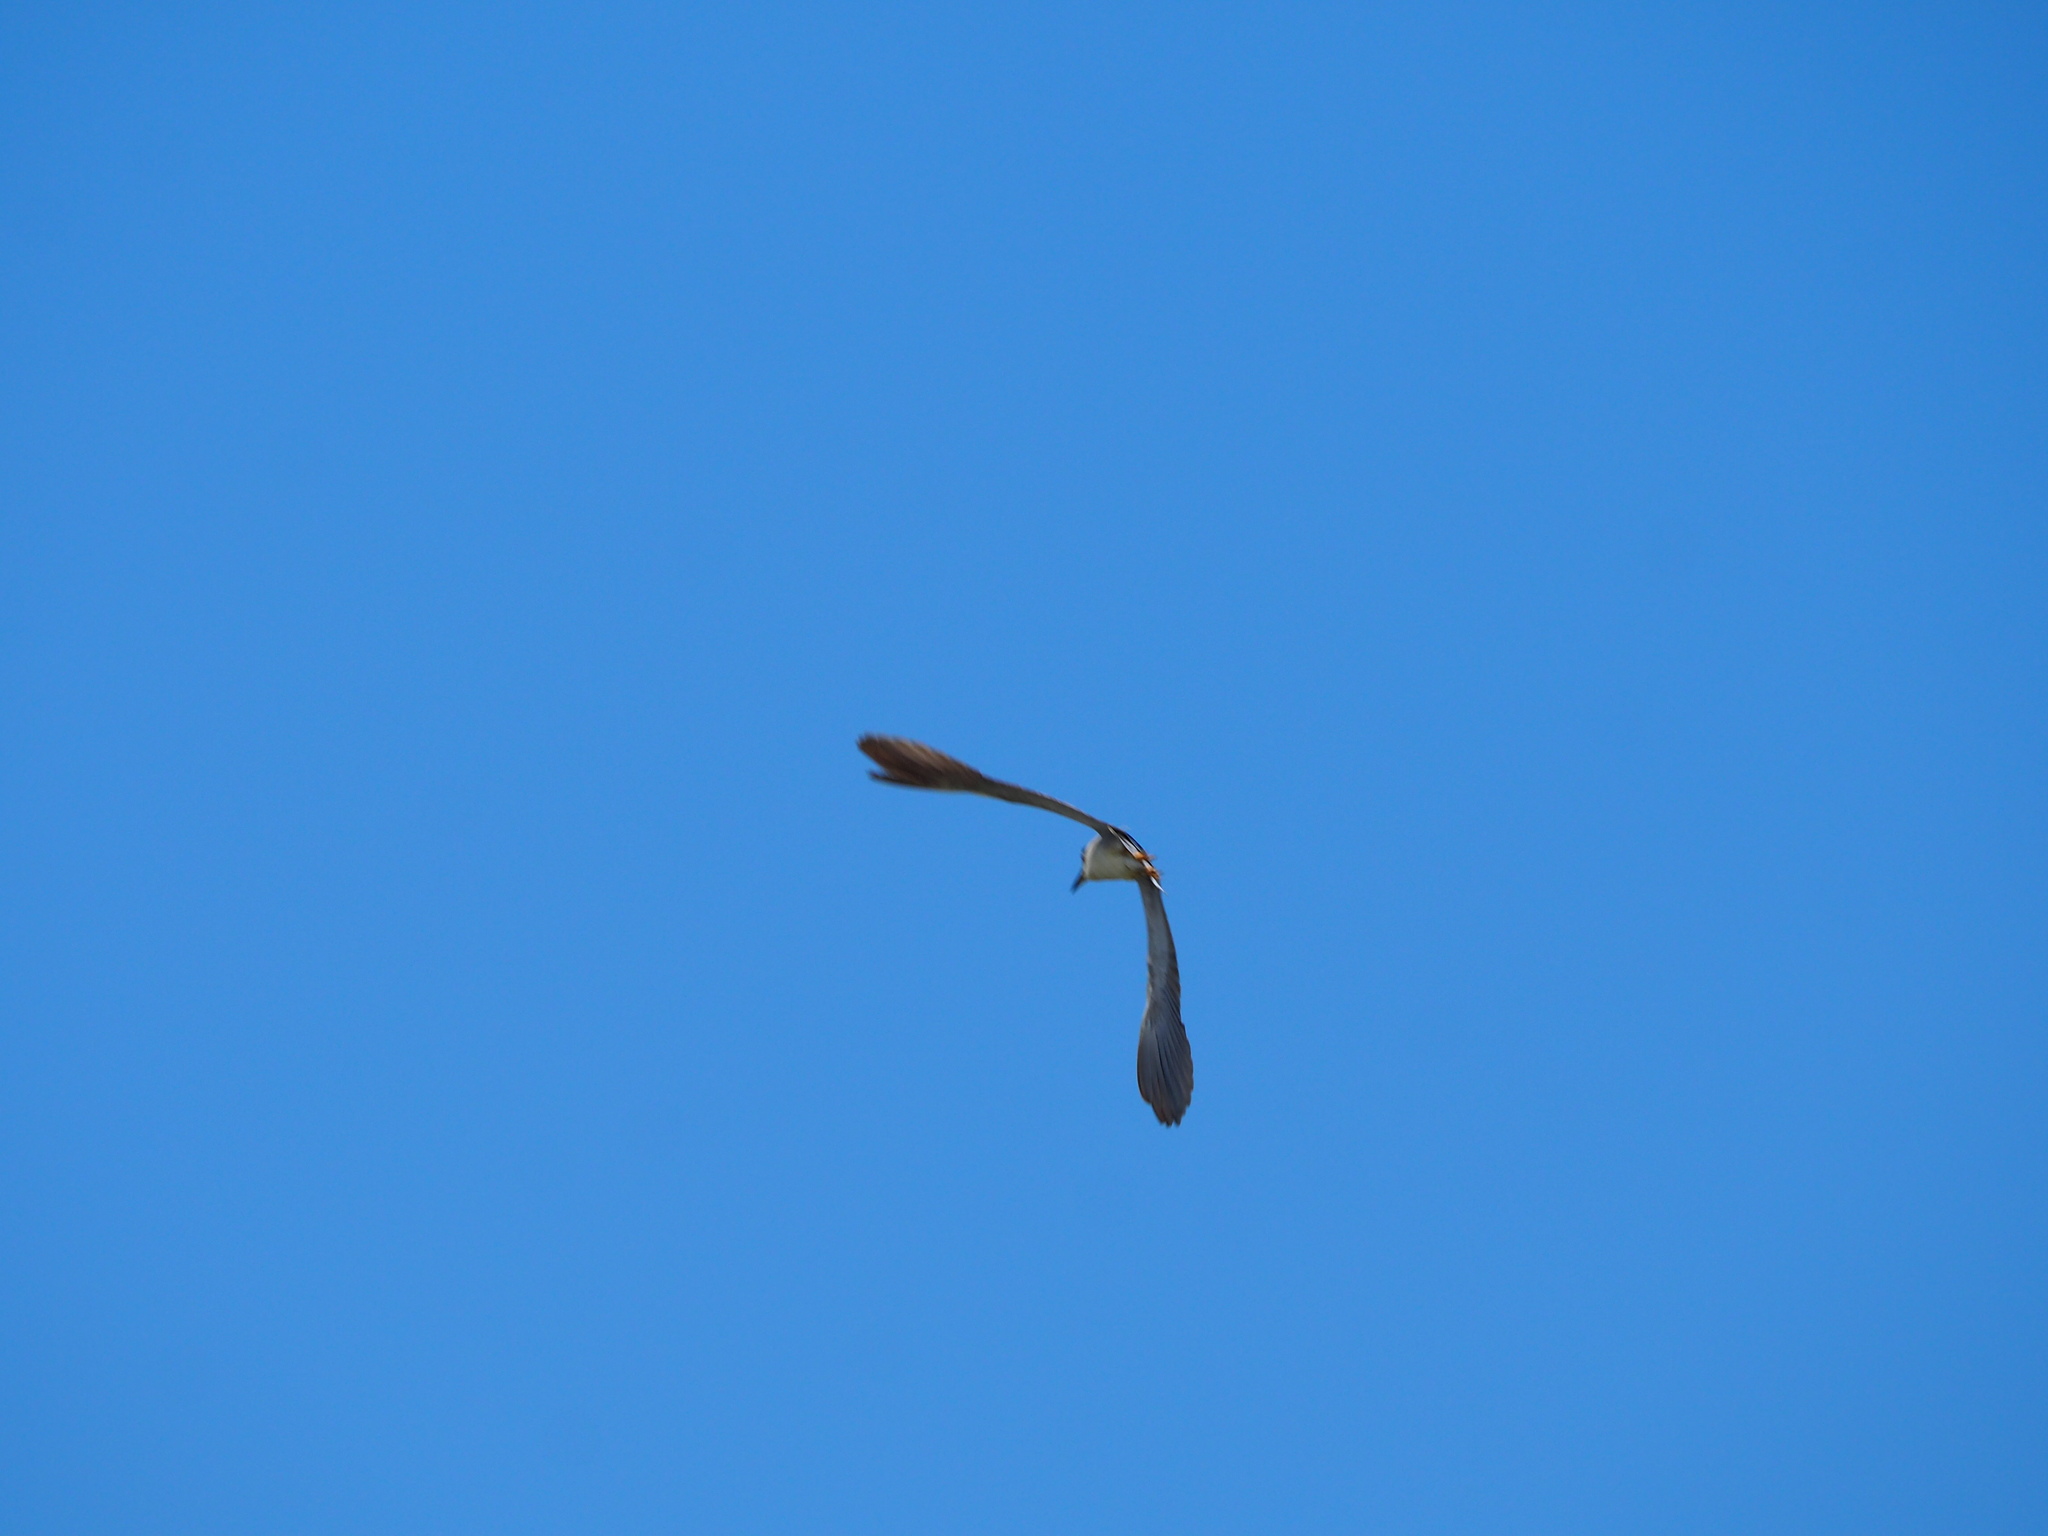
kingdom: Animalia
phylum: Chordata
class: Aves
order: Pelecaniformes
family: Ardeidae
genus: Nycticorax
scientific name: Nycticorax nycticorax
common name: Black-crowned night heron
